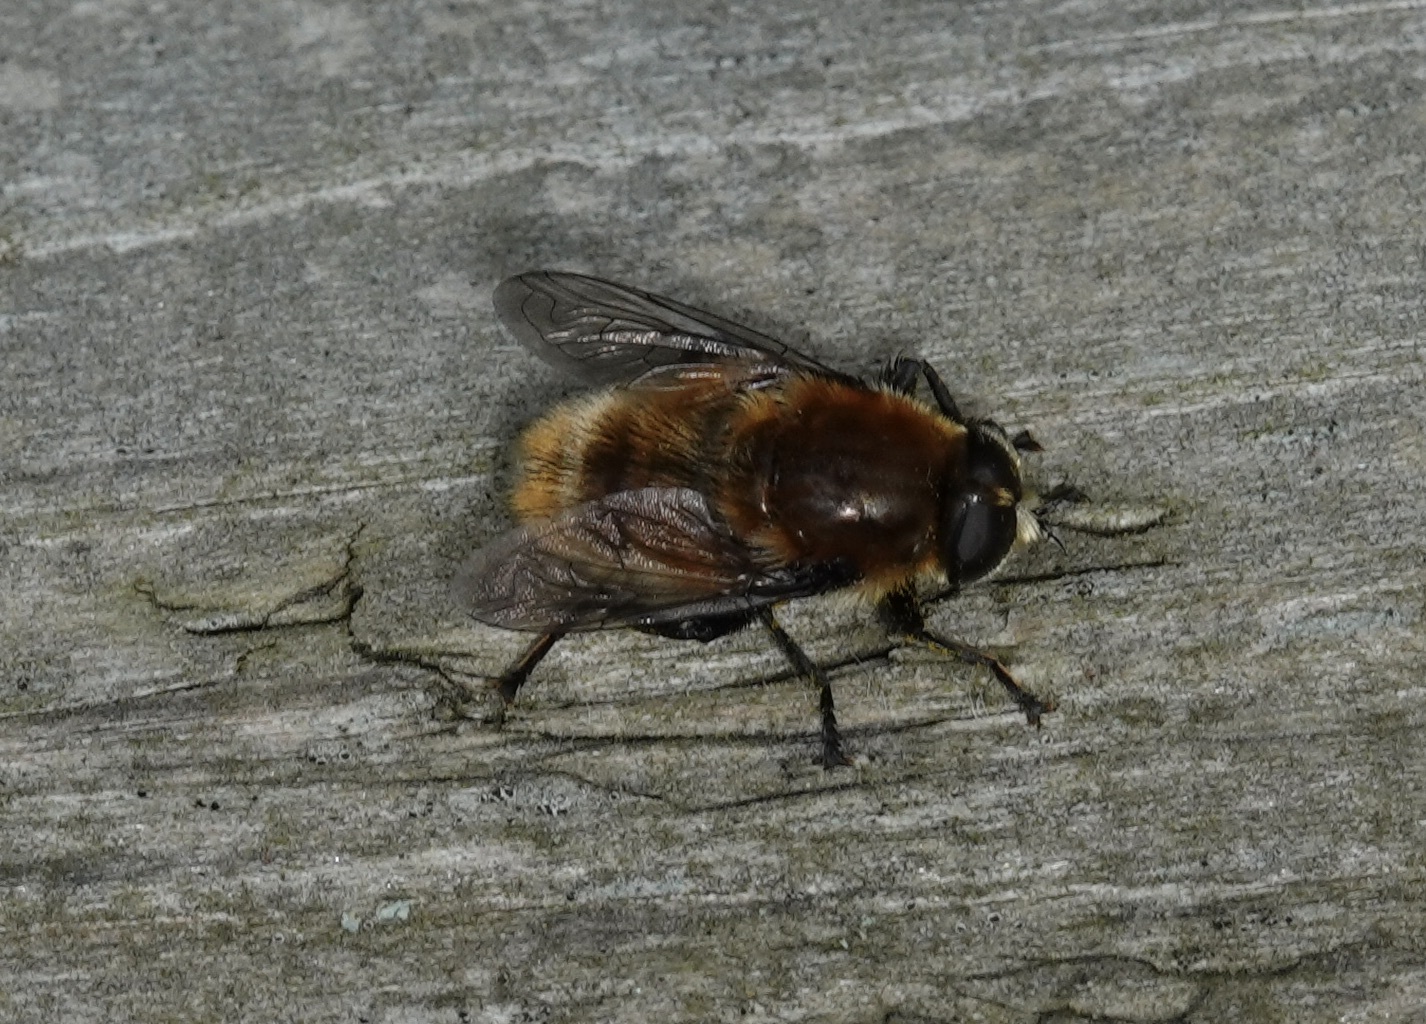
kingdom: Animalia
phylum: Arthropoda
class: Insecta
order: Diptera
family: Syrphidae
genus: Merodon
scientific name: Merodon equestris
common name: Greater bulb-fly
